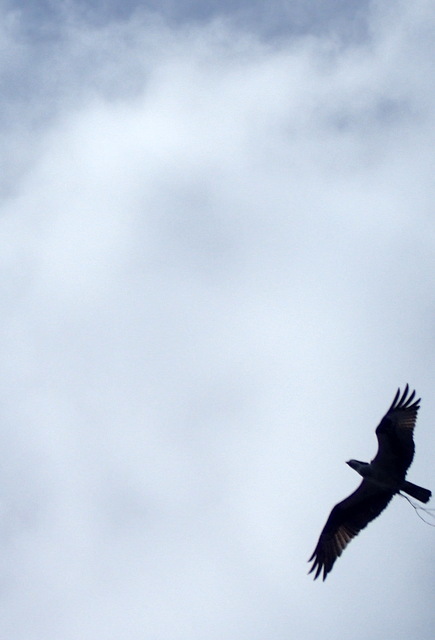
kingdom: Animalia
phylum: Chordata
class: Aves
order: Accipitriformes
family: Pandionidae
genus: Pandion
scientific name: Pandion haliaetus
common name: Osprey
